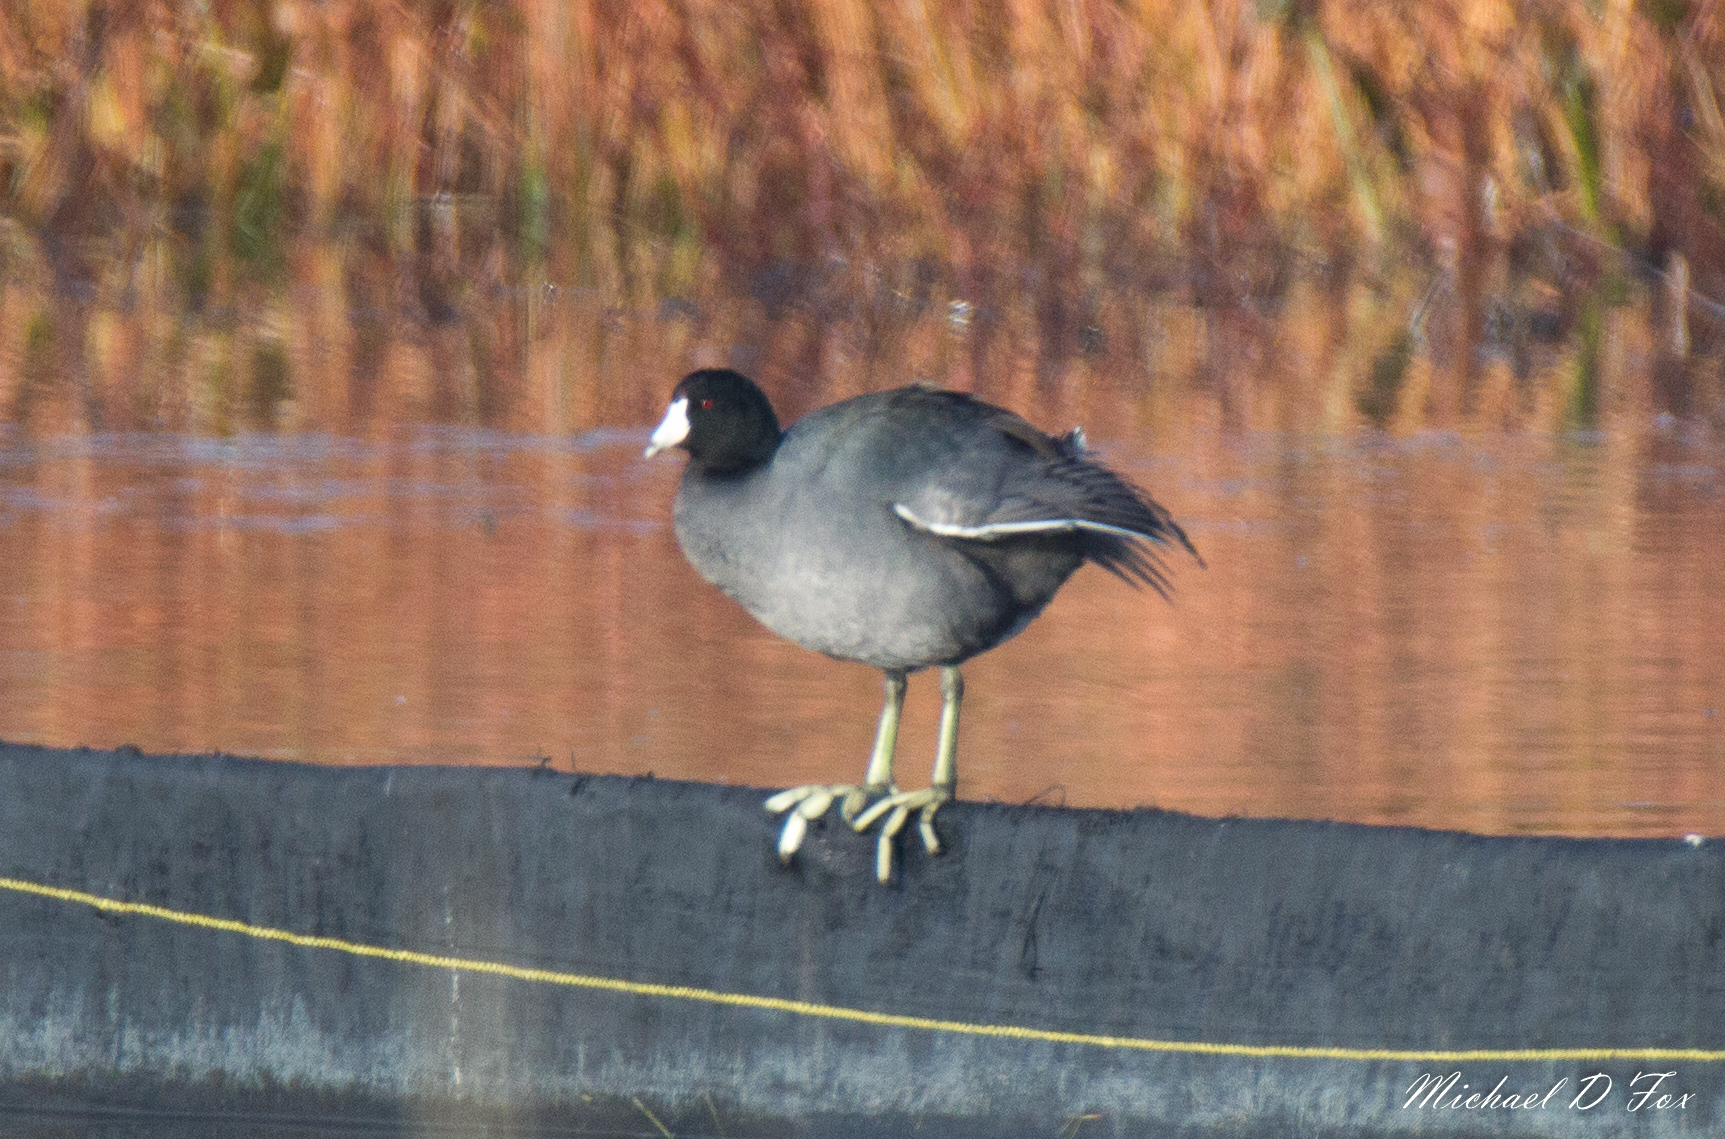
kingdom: Animalia
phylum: Chordata
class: Aves
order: Gruiformes
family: Rallidae
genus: Fulica
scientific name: Fulica americana
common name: American coot
